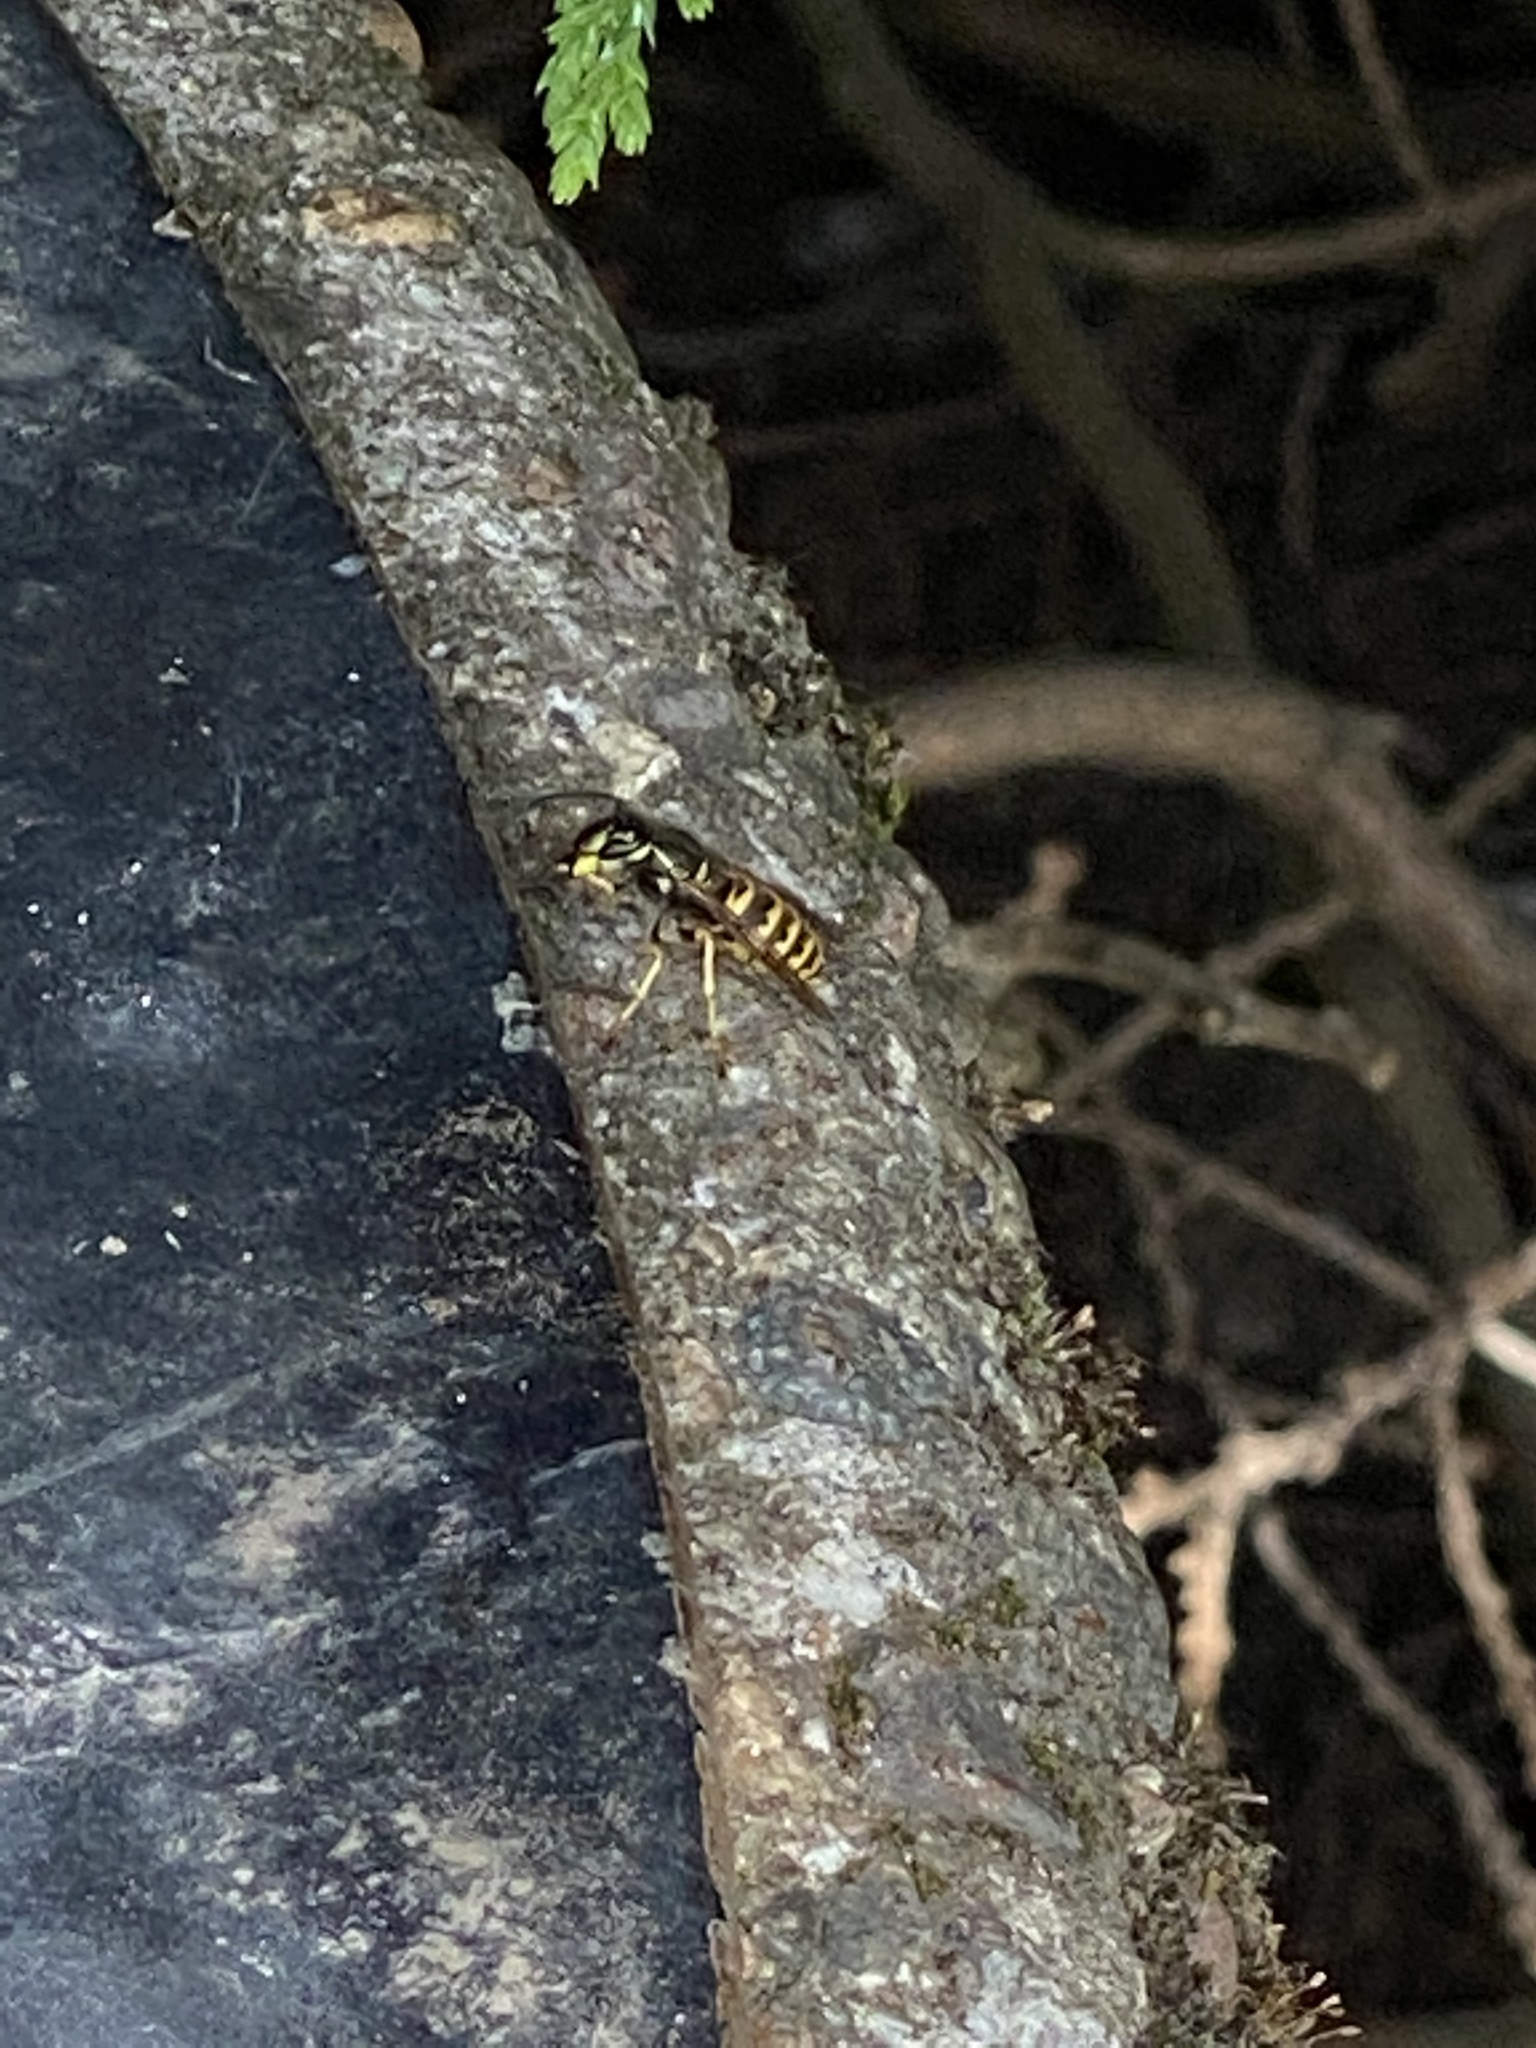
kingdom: Animalia
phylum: Arthropoda
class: Insecta
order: Hymenoptera
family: Vespidae
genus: Vespula
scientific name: Vespula alascensis
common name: Alaska yellowjacket
